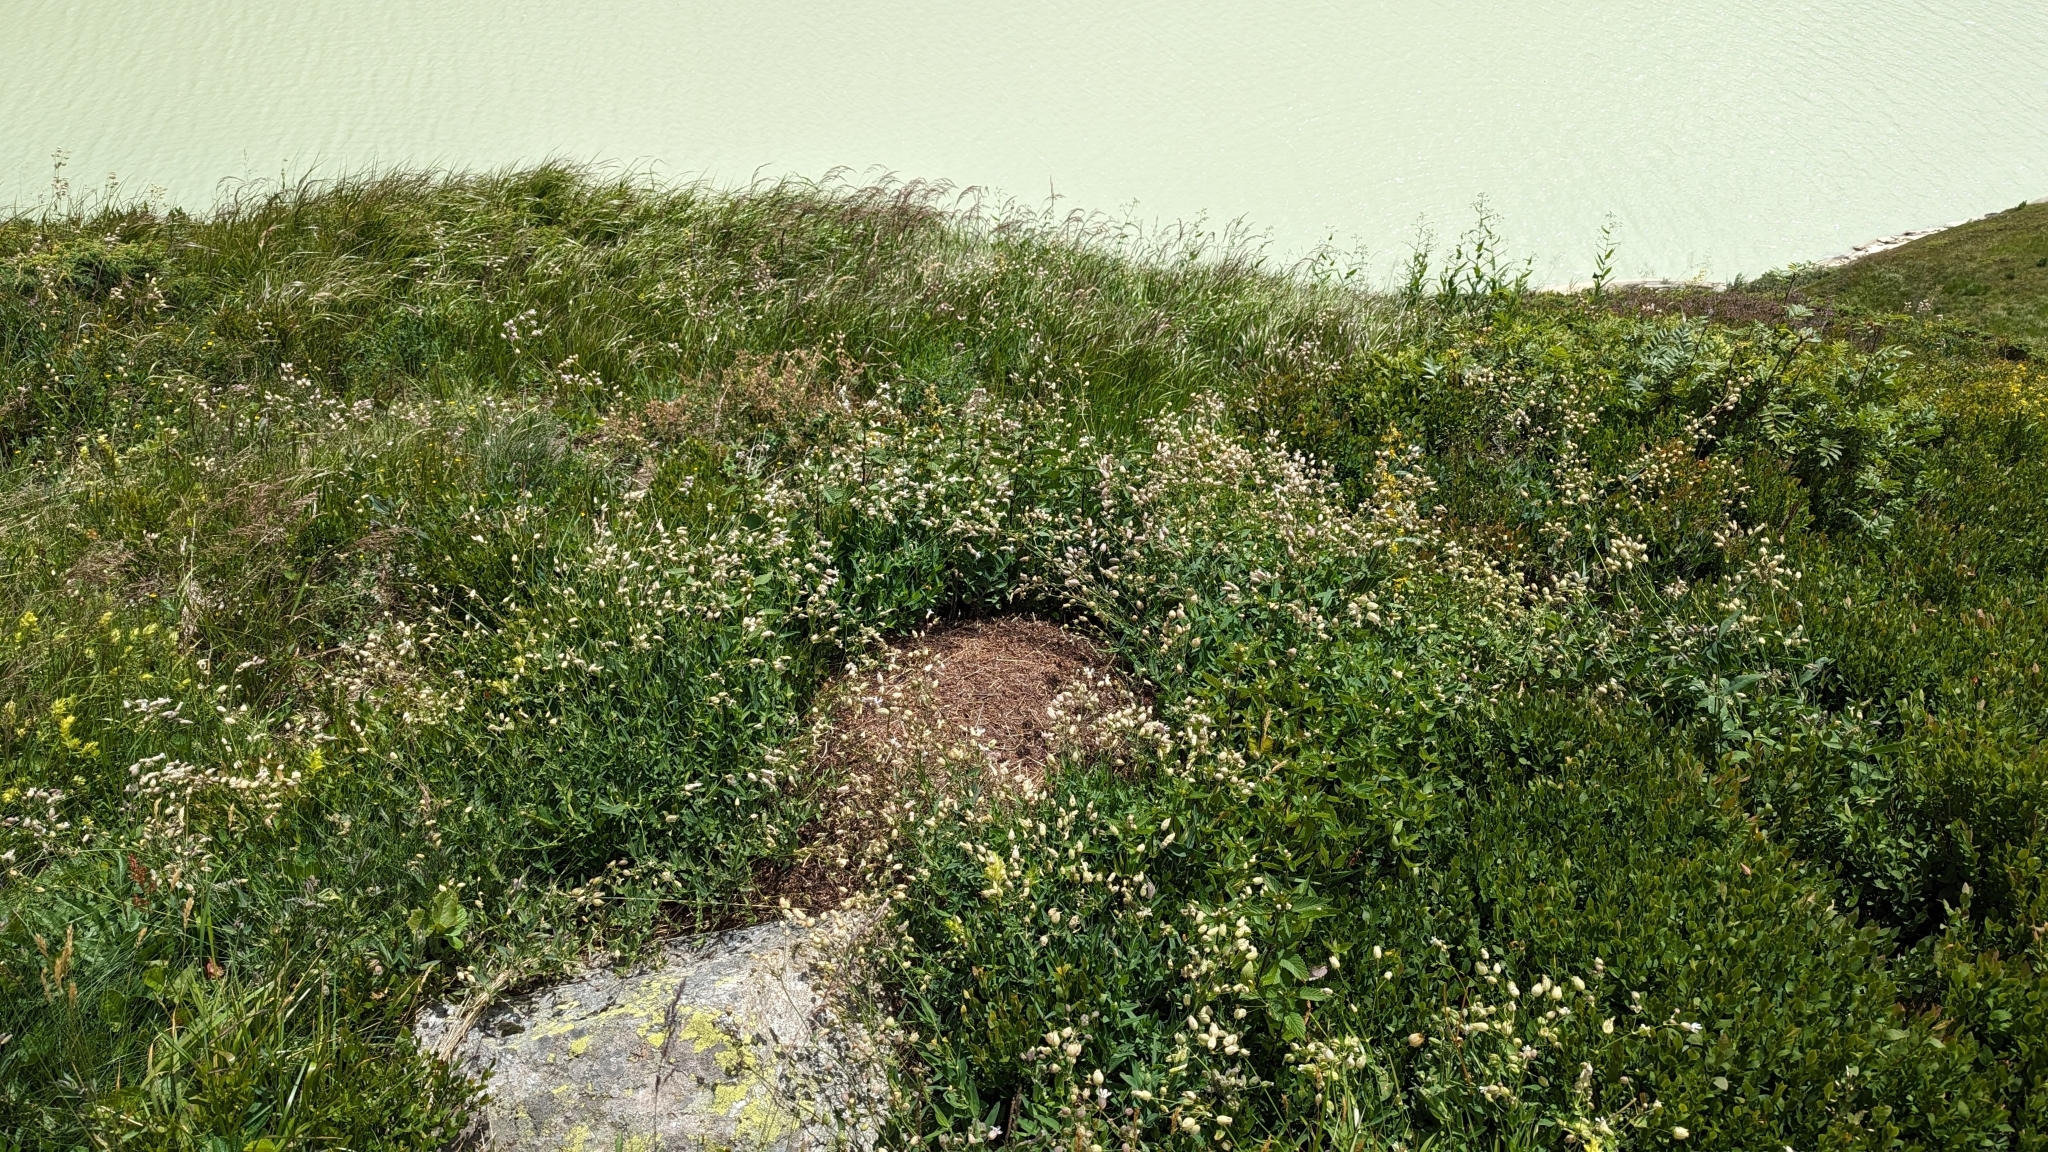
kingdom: Animalia
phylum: Arthropoda
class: Insecta
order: Hymenoptera
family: Formicidae
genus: Formica
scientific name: Formica
